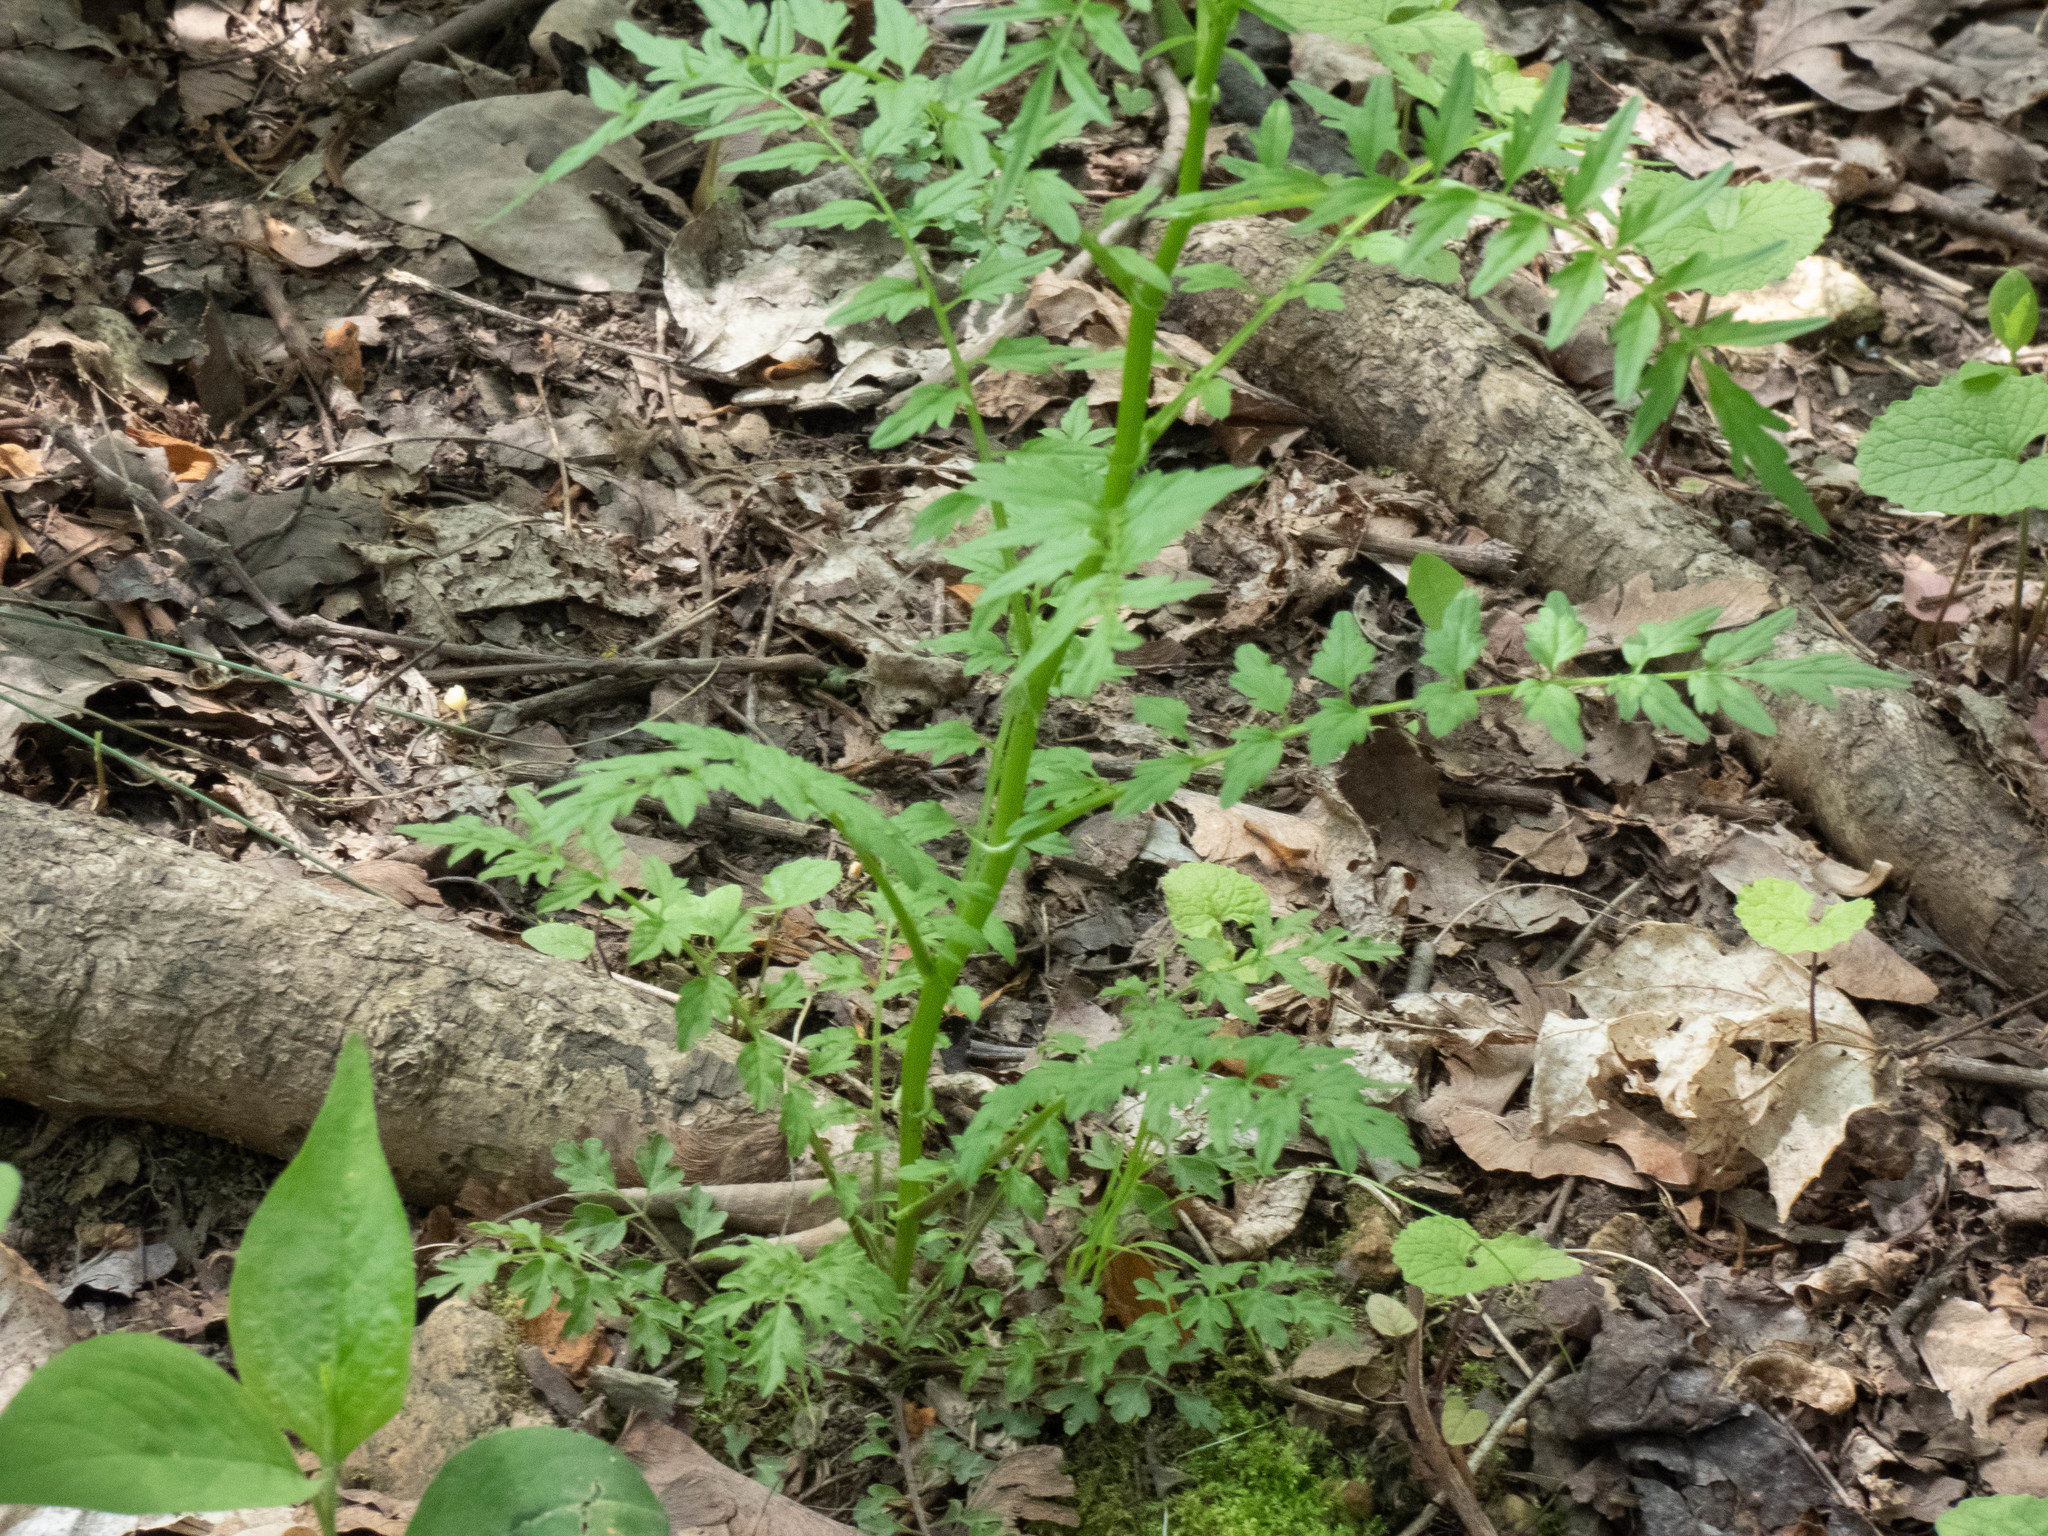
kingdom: Plantae
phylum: Tracheophyta
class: Magnoliopsida
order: Brassicales
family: Brassicaceae
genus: Cardamine
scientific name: Cardamine impatiens
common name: Narrow-leaved bitter-cress
